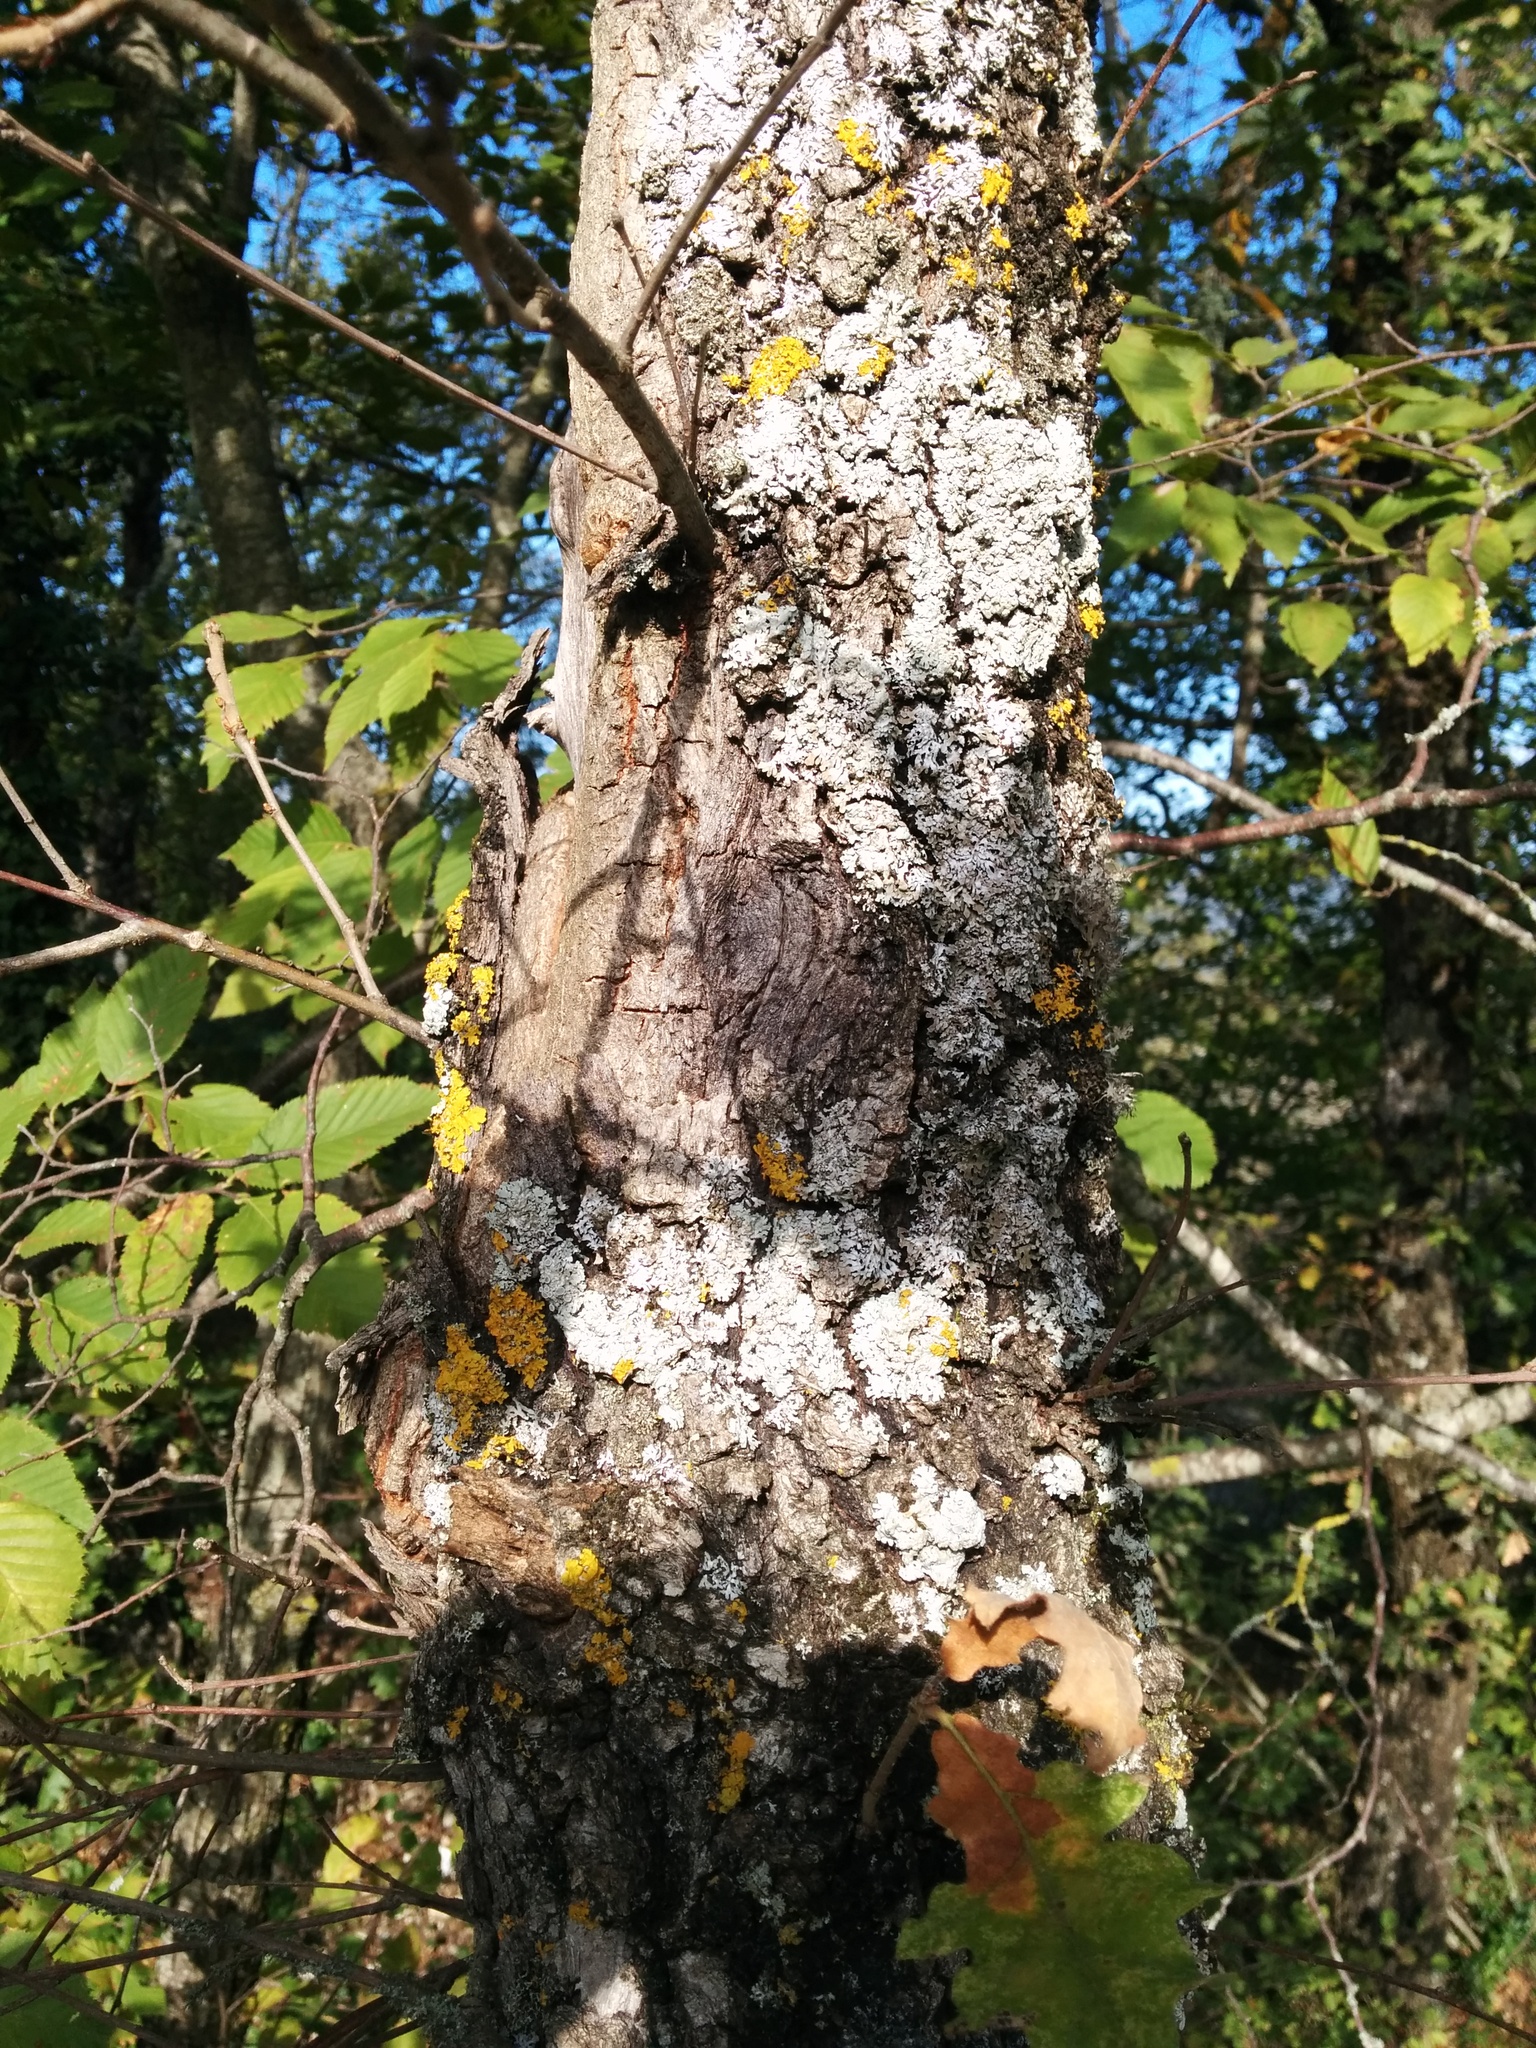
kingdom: Animalia
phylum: Arthropoda
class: Insecta
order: Hymenoptera
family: Cynipidae
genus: Andricus
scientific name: Andricus kollari
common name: Marble gall
